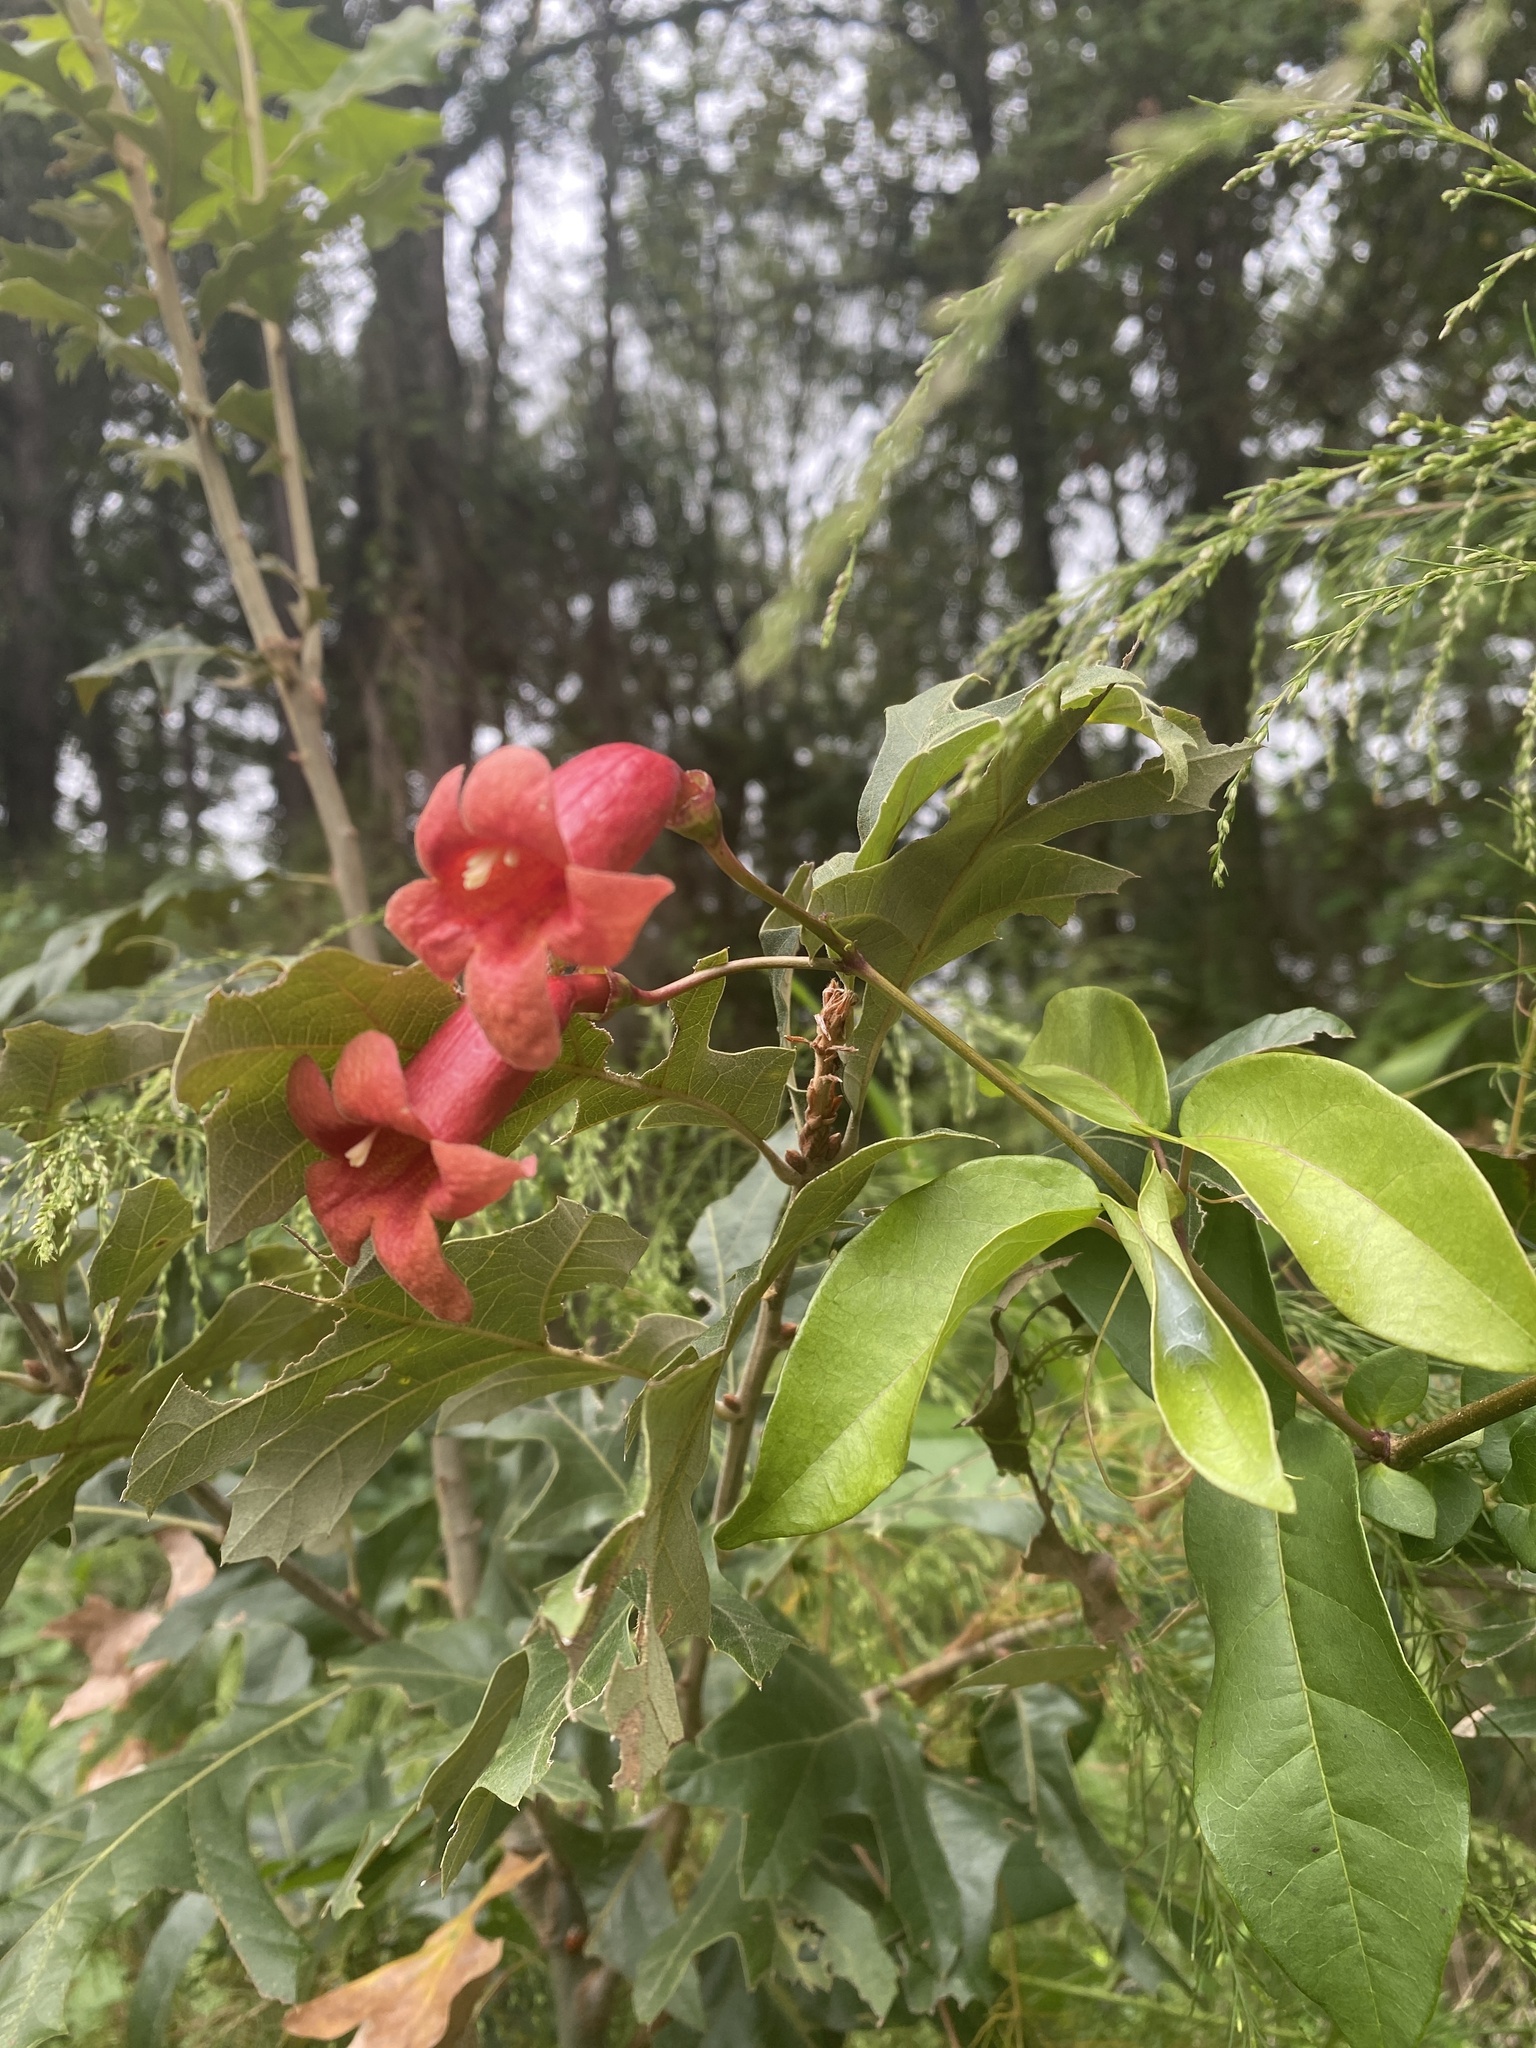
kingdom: Plantae
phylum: Tracheophyta
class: Magnoliopsida
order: Lamiales
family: Bignoniaceae
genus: Campsis
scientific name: Campsis radicans
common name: Trumpet-creeper
